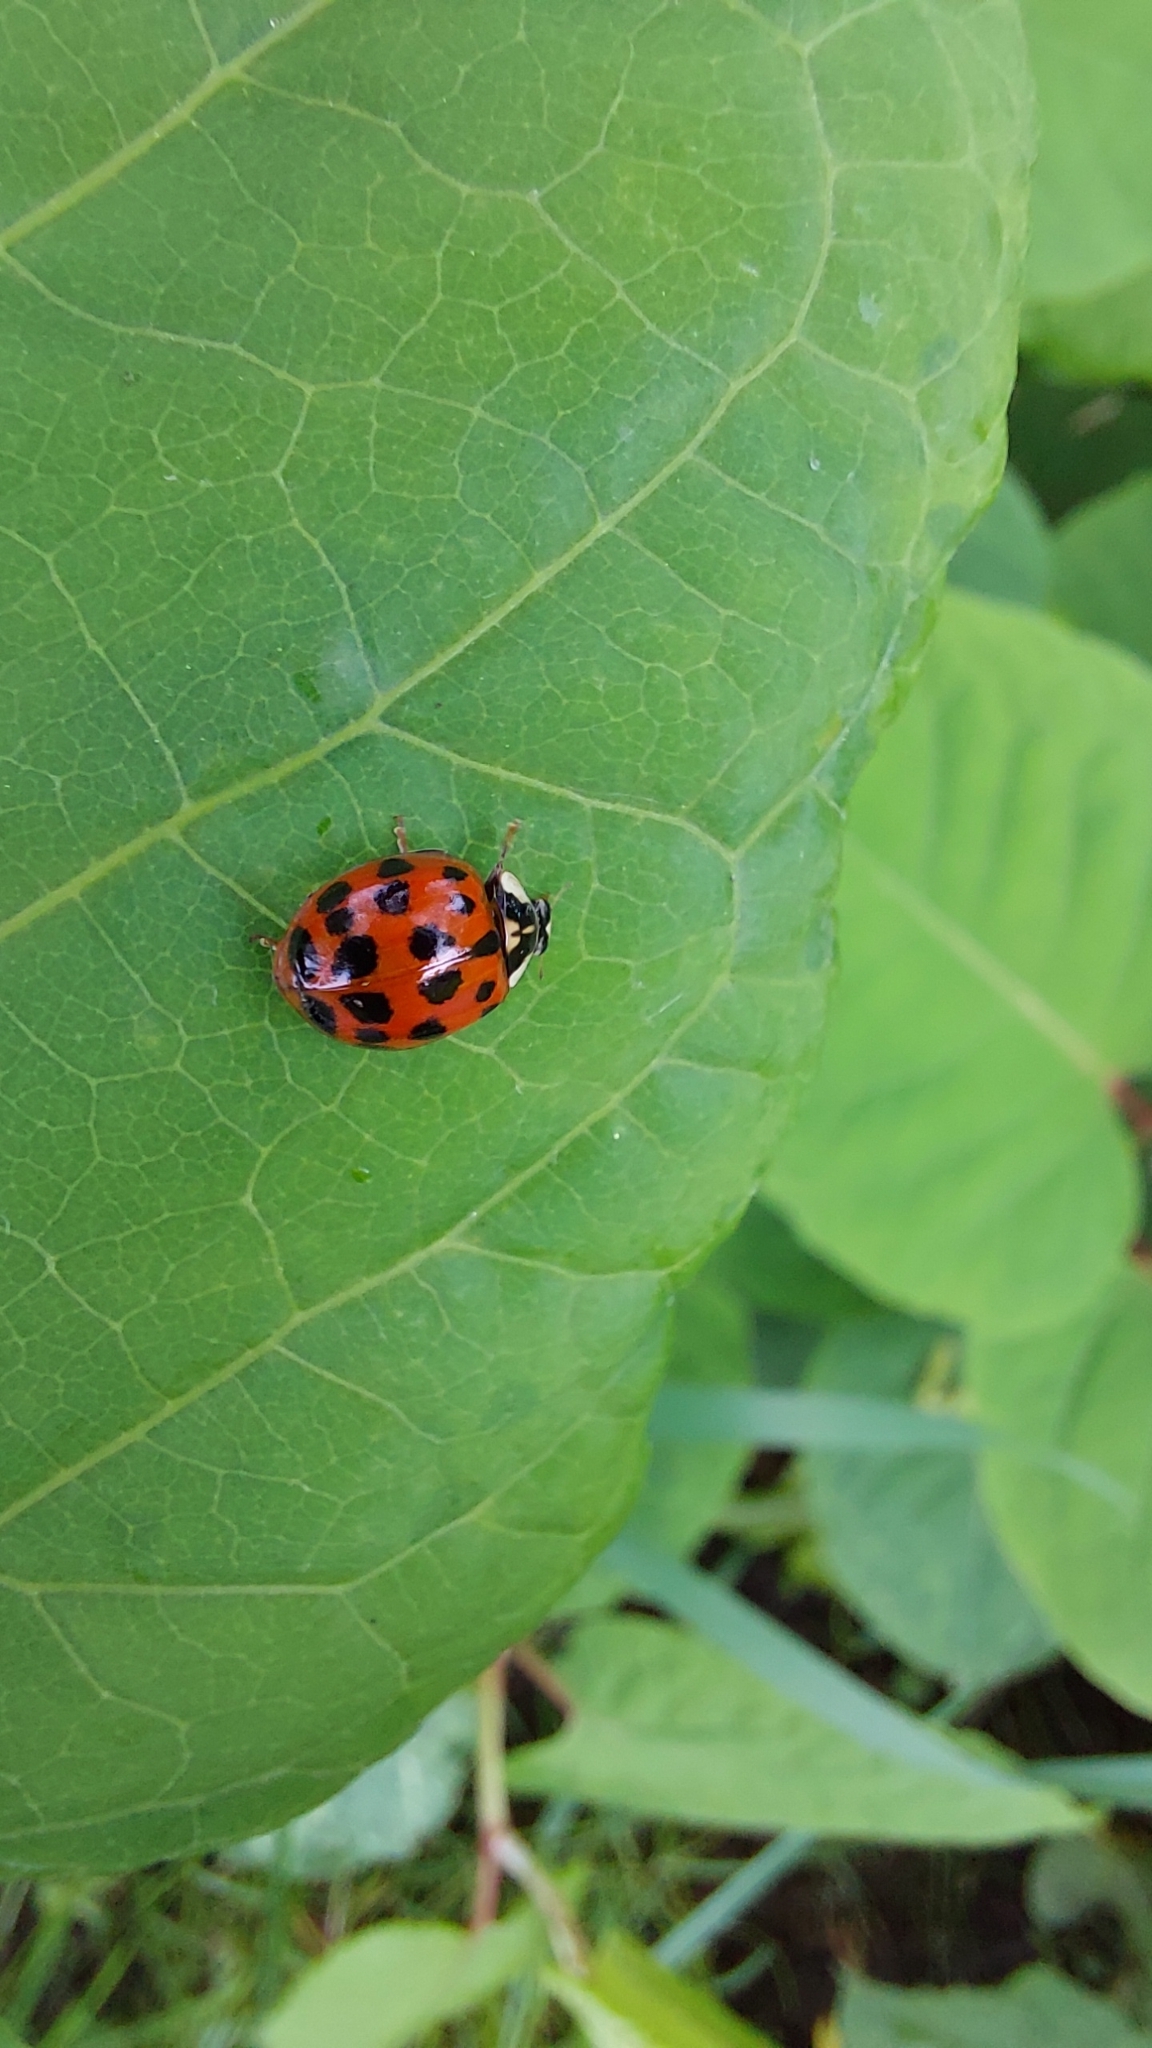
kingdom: Animalia
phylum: Arthropoda
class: Insecta
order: Coleoptera
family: Coccinellidae
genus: Harmonia
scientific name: Harmonia axyridis
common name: Harlequin ladybird
